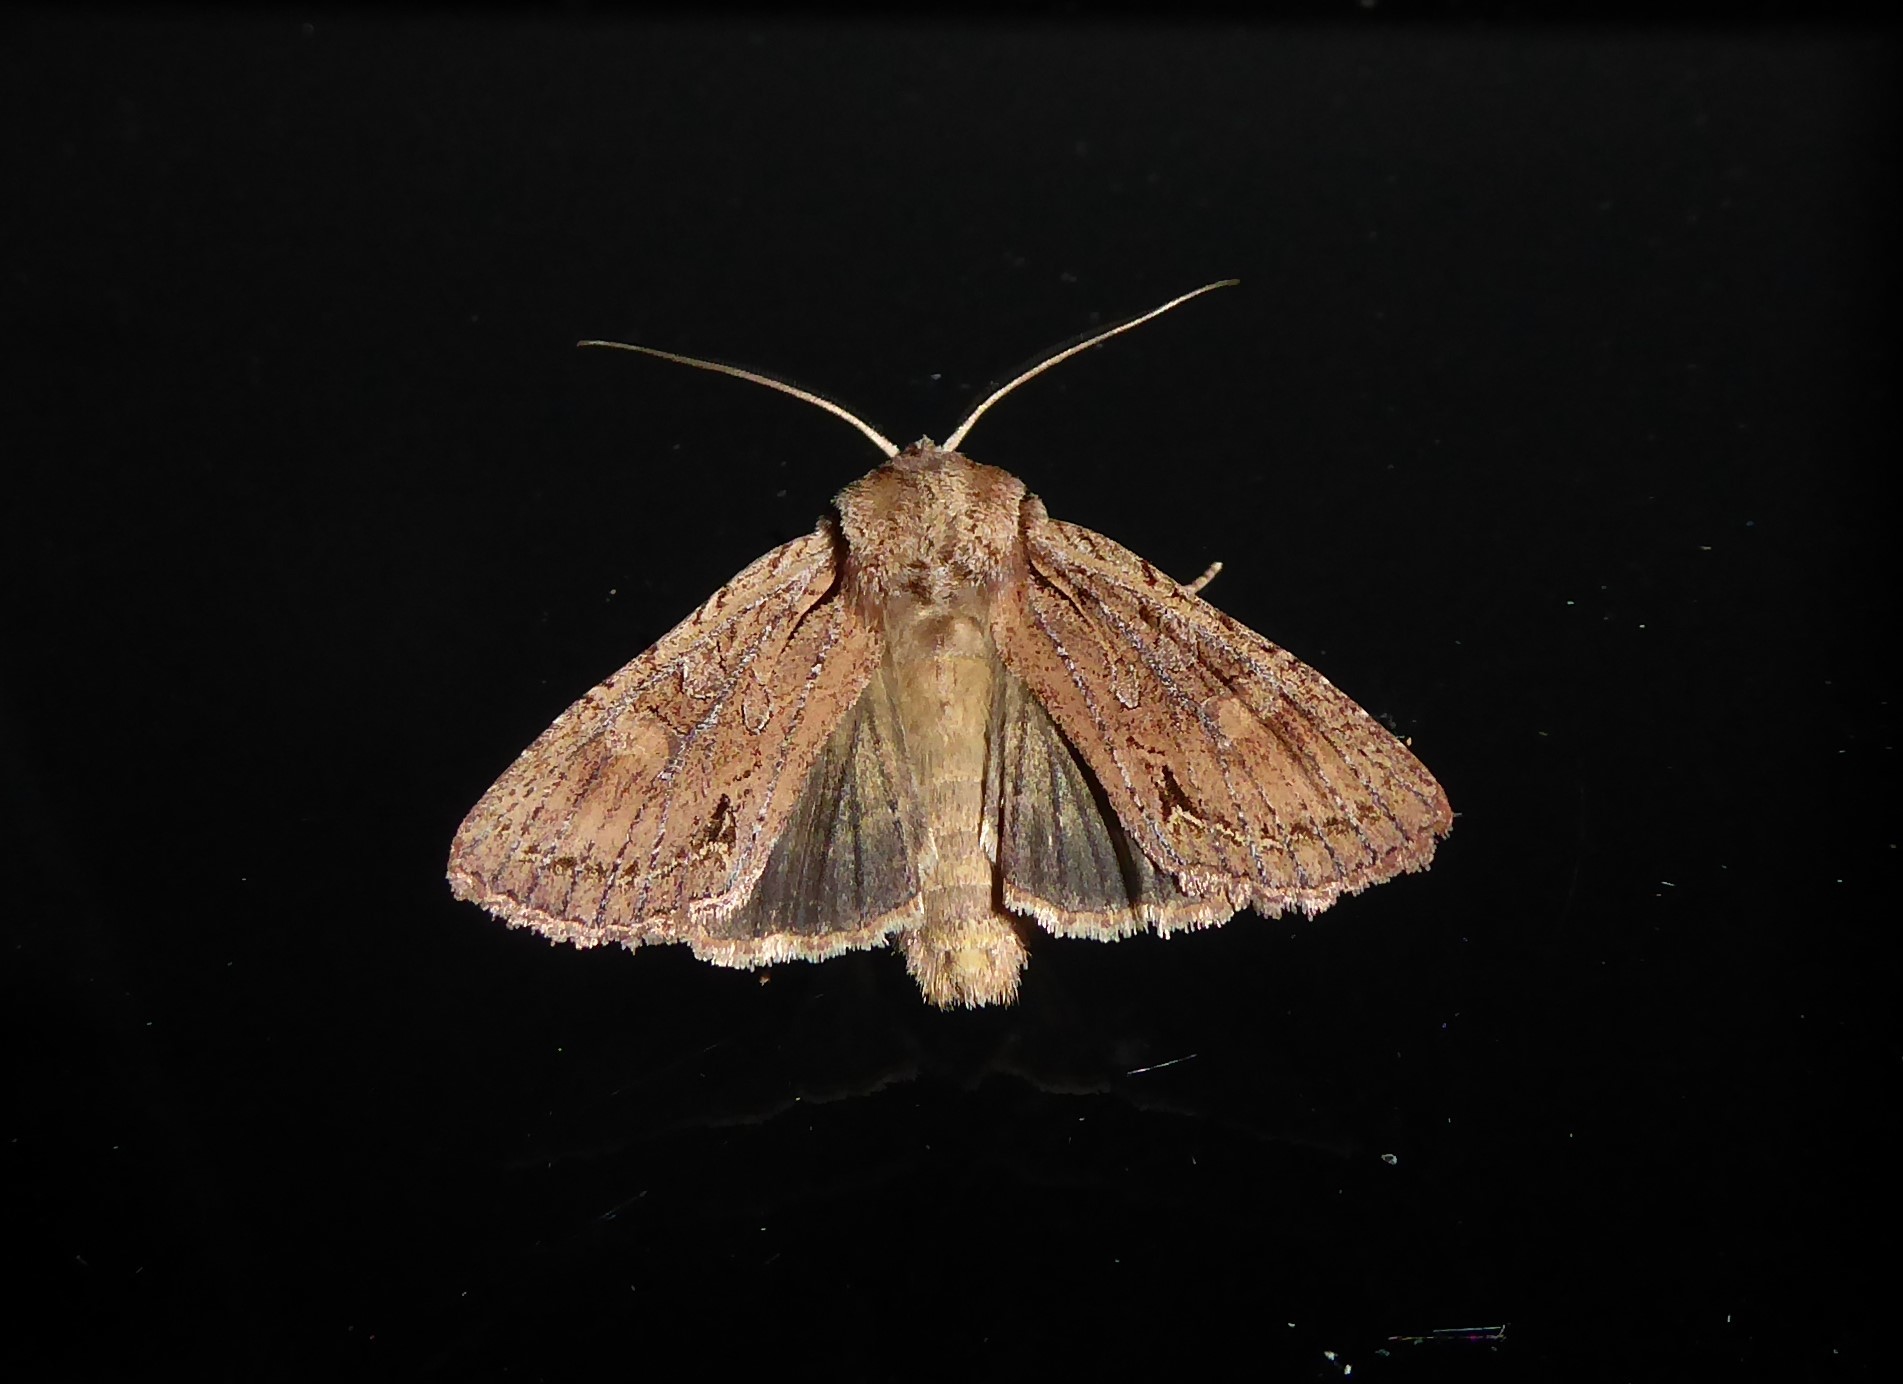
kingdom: Animalia
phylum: Arthropoda
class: Insecta
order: Lepidoptera
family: Noctuidae
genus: Ichneutica
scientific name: Ichneutica
